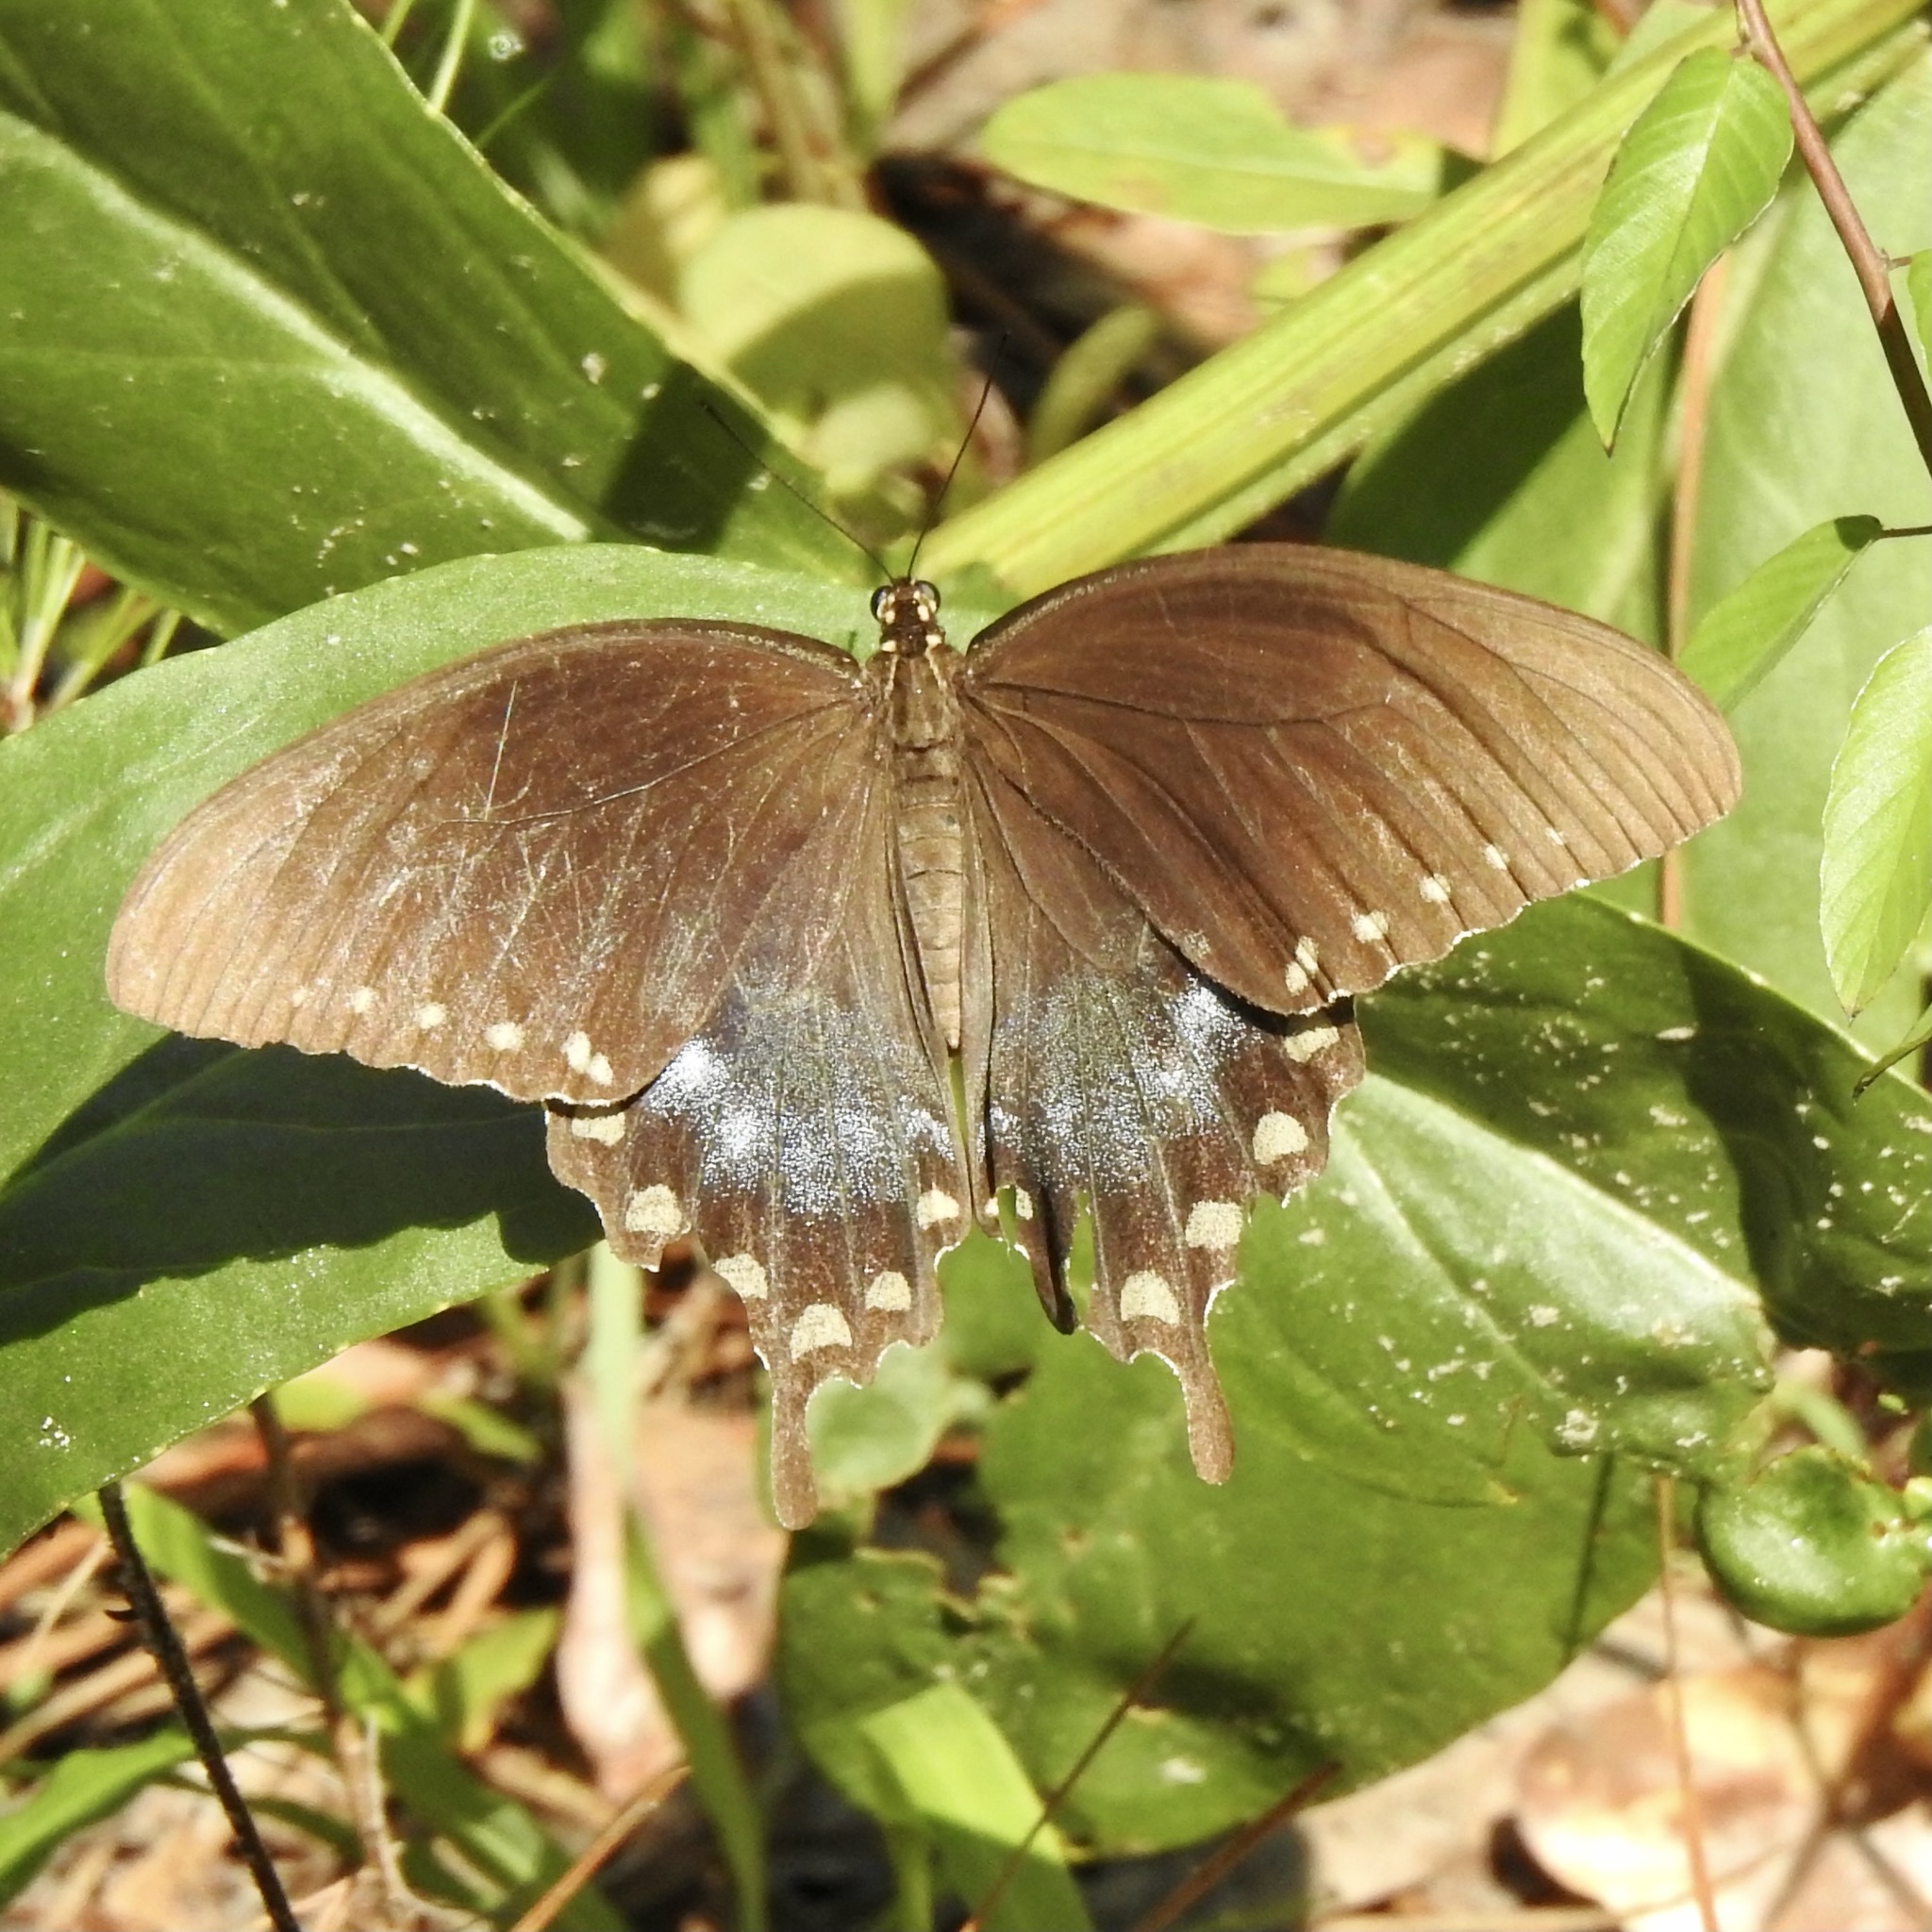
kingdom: Animalia
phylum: Arthropoda
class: Insecta
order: Lepidoptera
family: Papilionidae
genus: Papilio
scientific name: Papilio troilus
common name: Spicebush swallowtail
